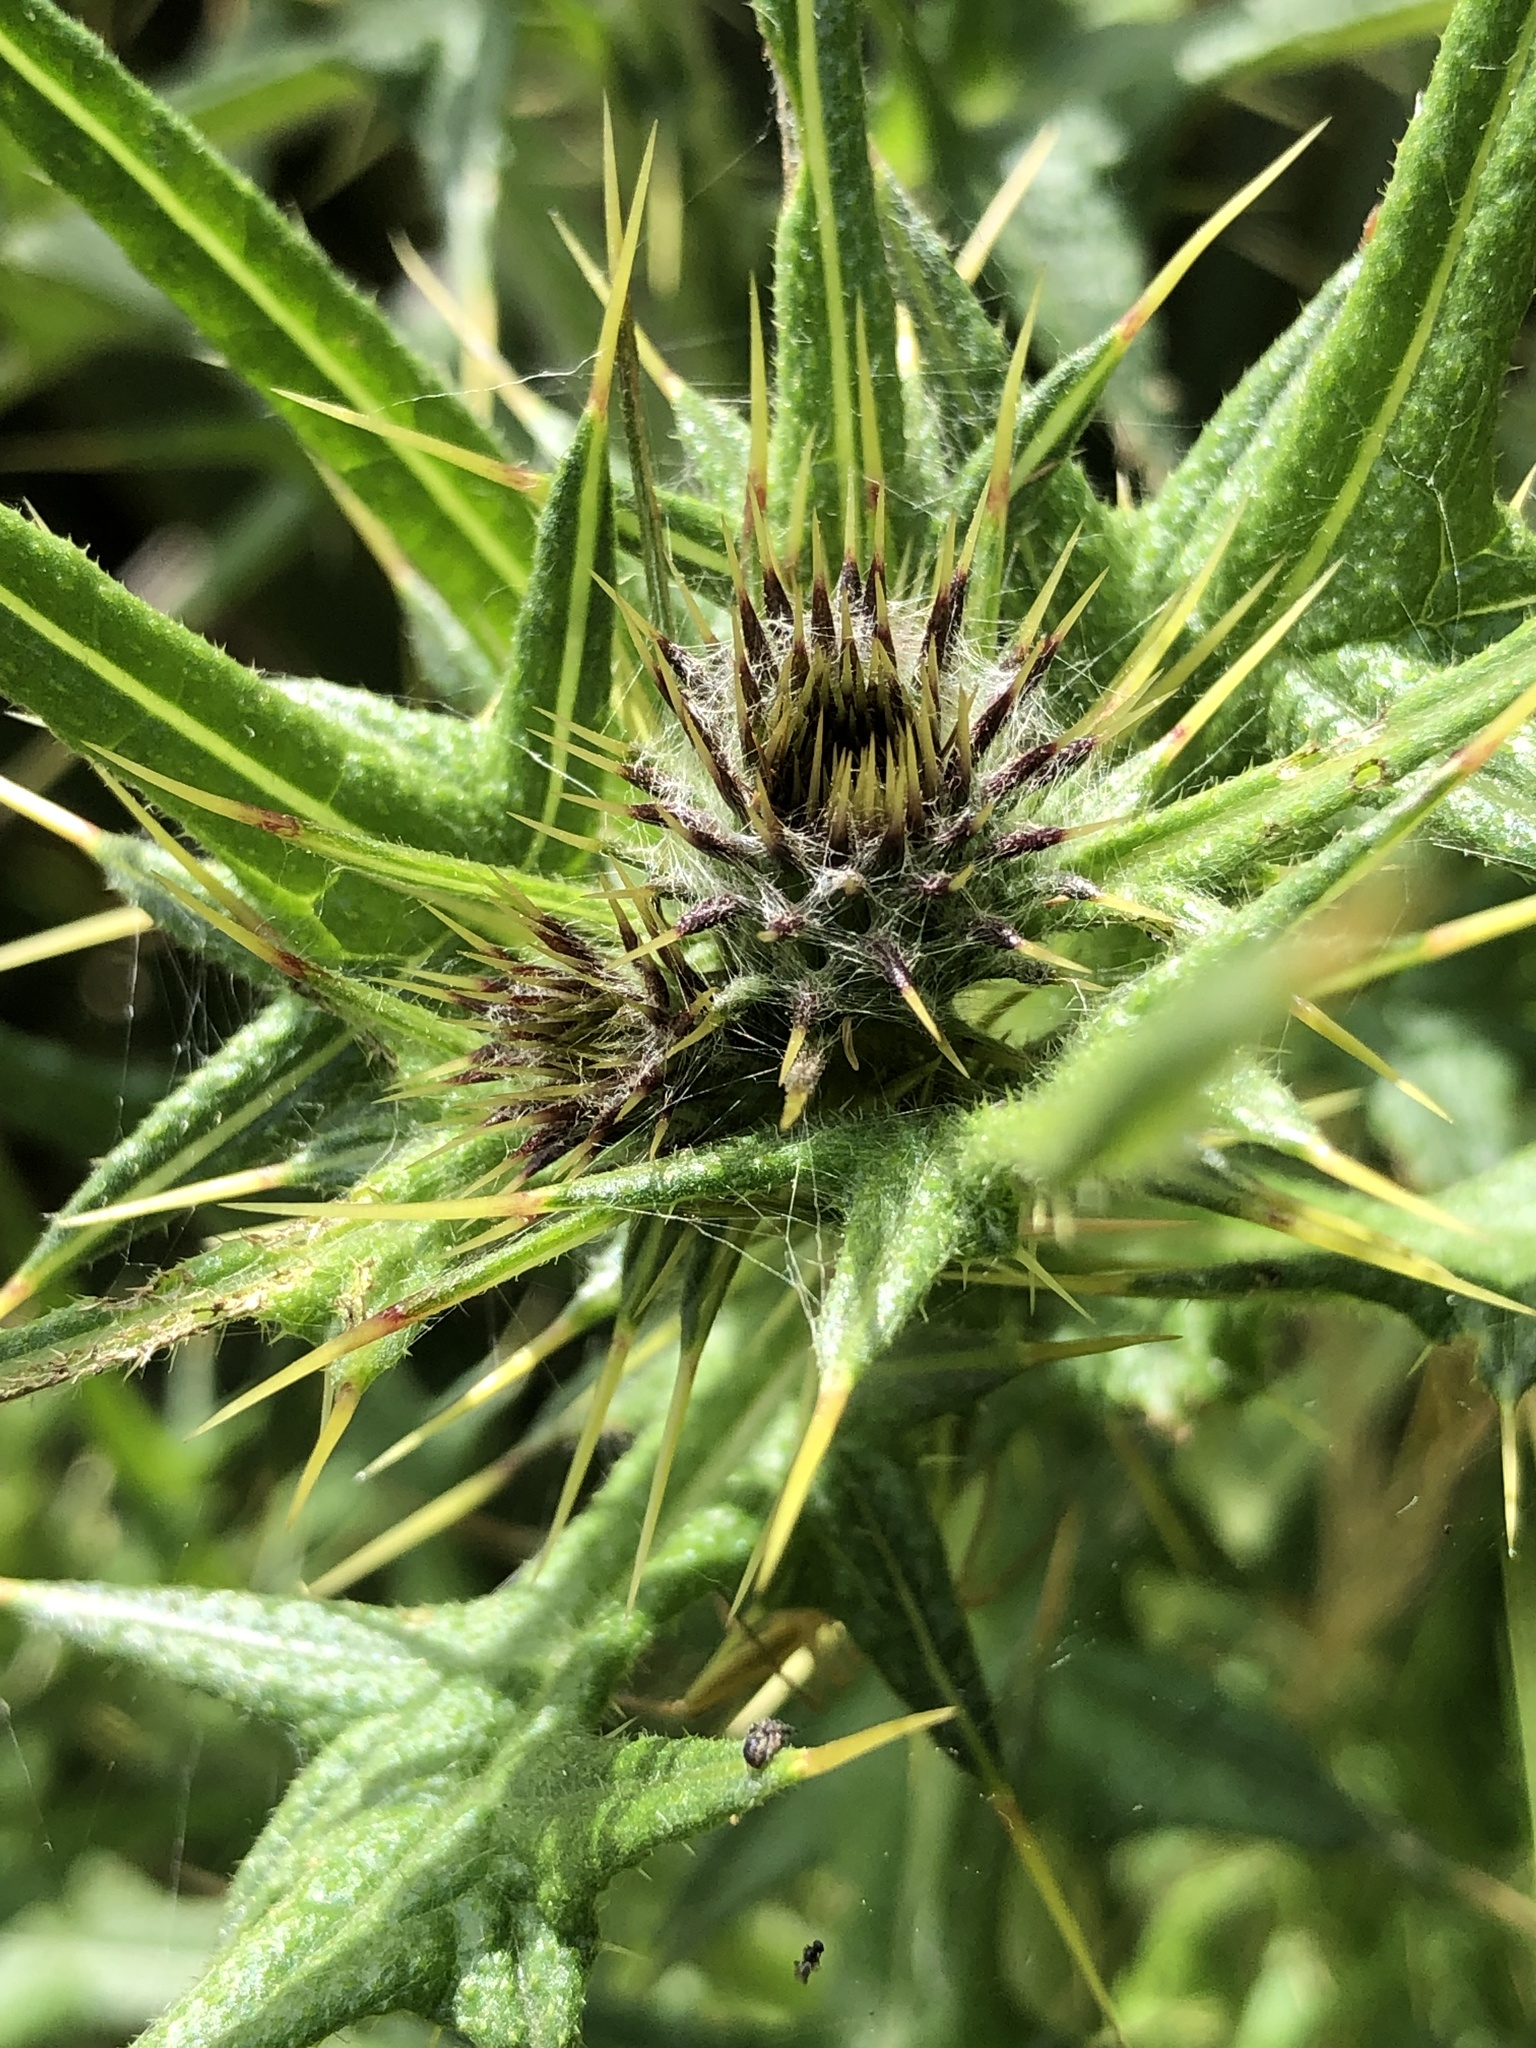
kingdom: Plantae
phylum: Tracheophyta
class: Magnoliopsida
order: Asterales
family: Asteraceae
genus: Cirsium
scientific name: Cirsium vulgare
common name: Bull thistle
